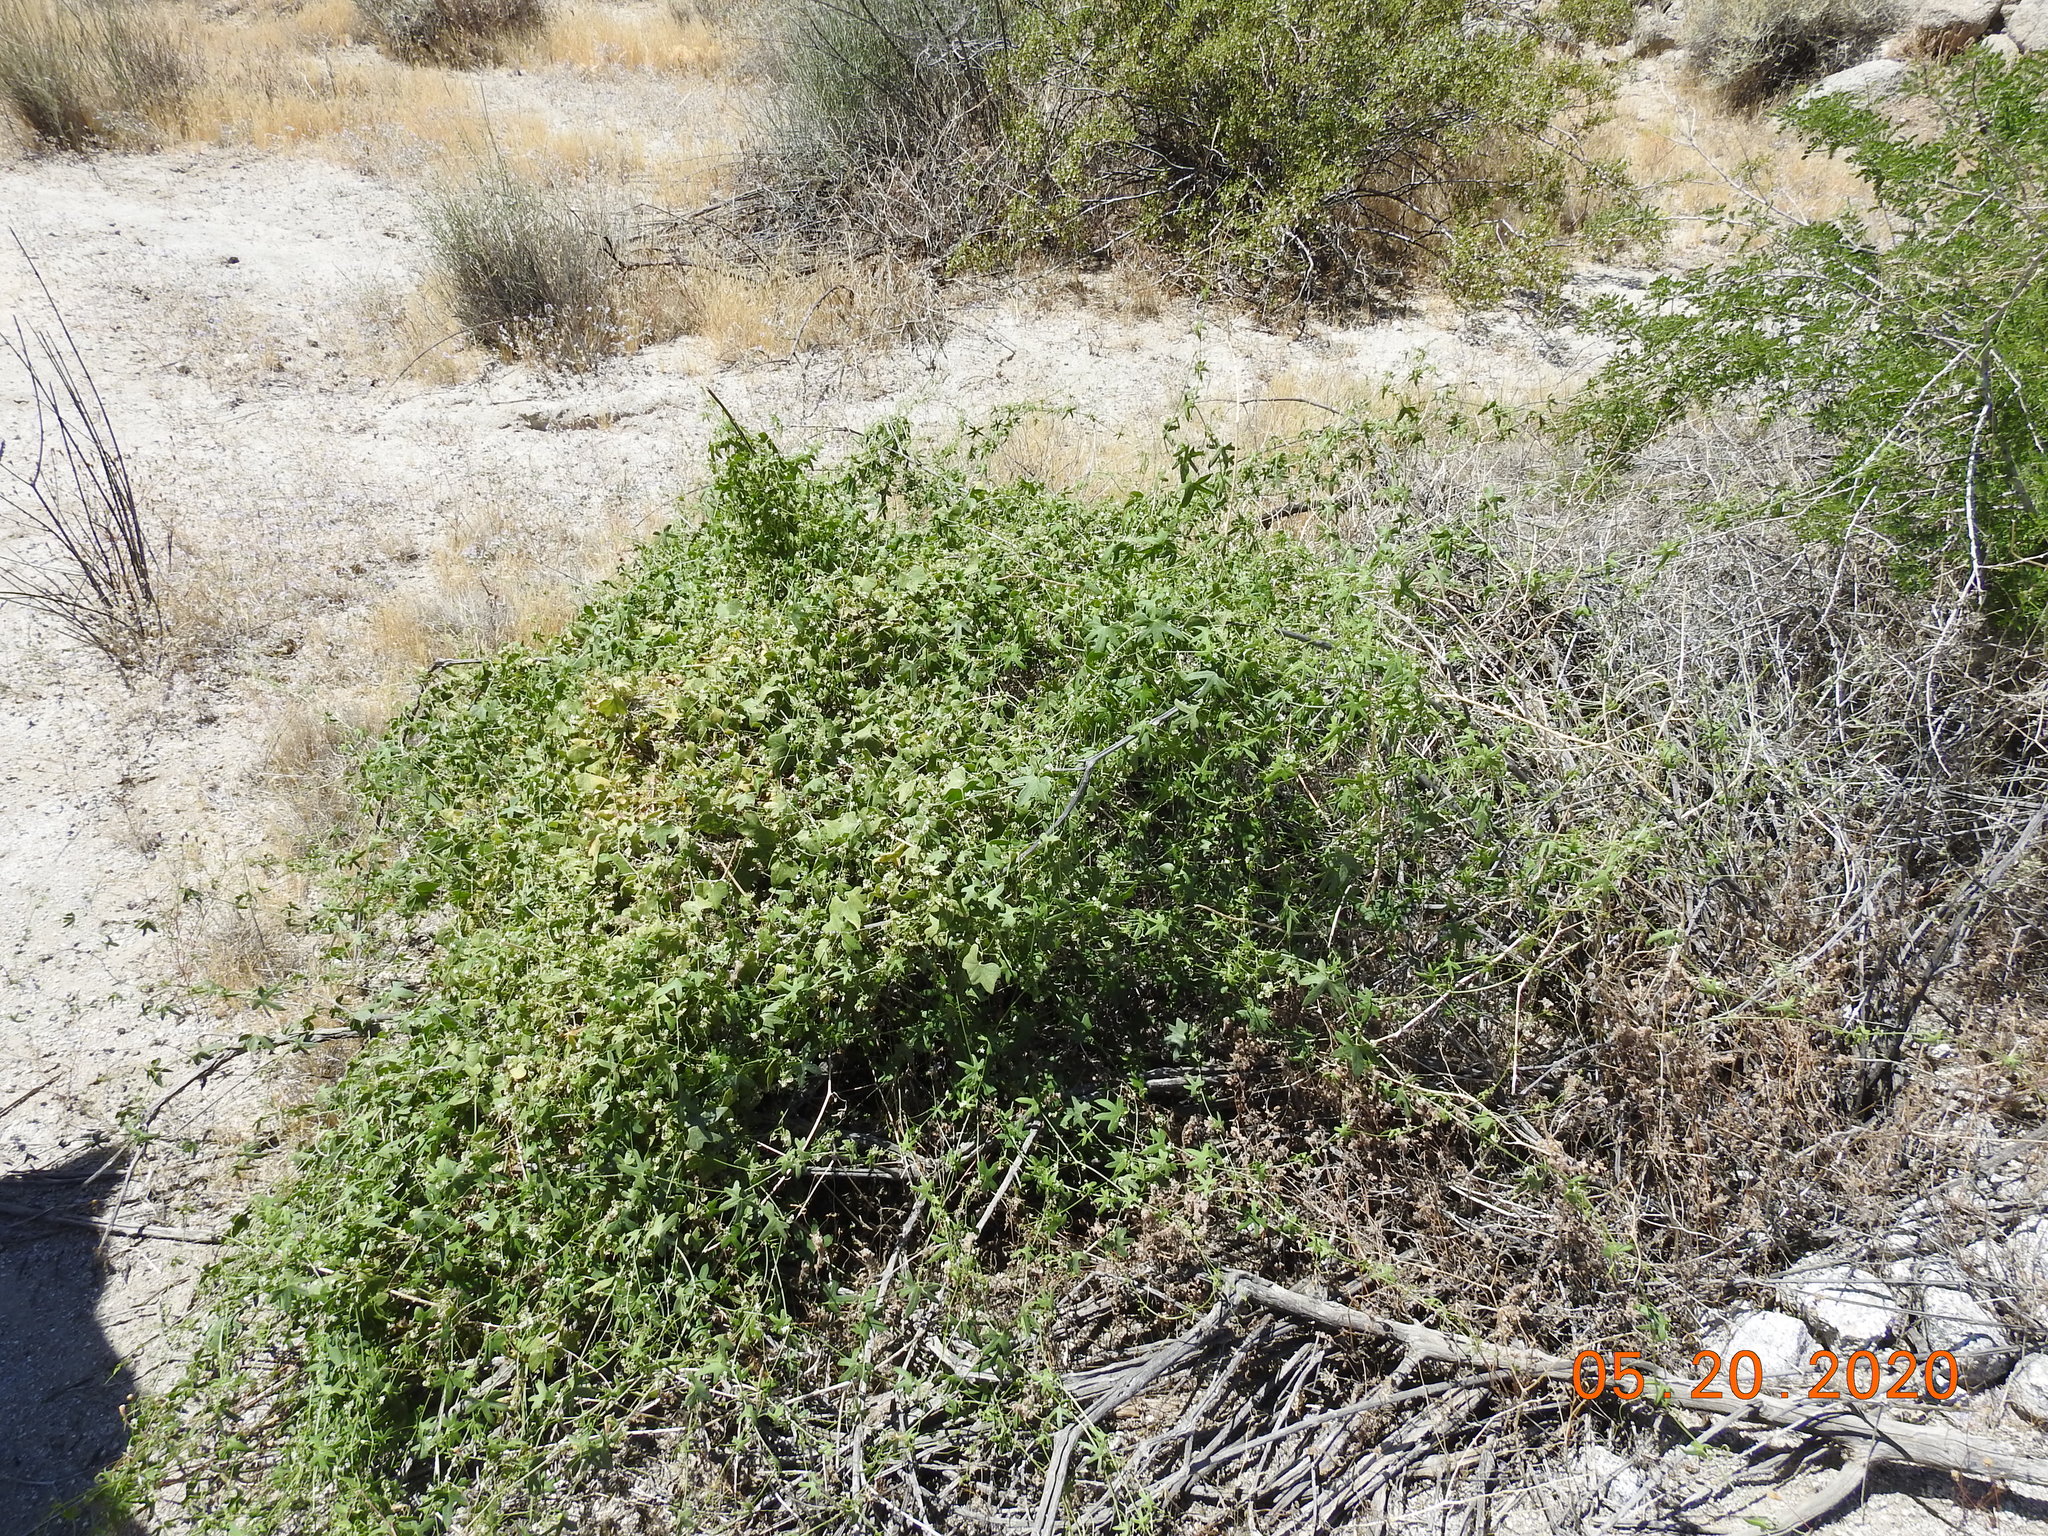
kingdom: Plantae
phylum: Tracheophyta
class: Magnoliopsida
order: Cucurbitales
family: Cucurbitaceae
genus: Echinopepon
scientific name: Echinopepon bigelovii
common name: Desert starvine
